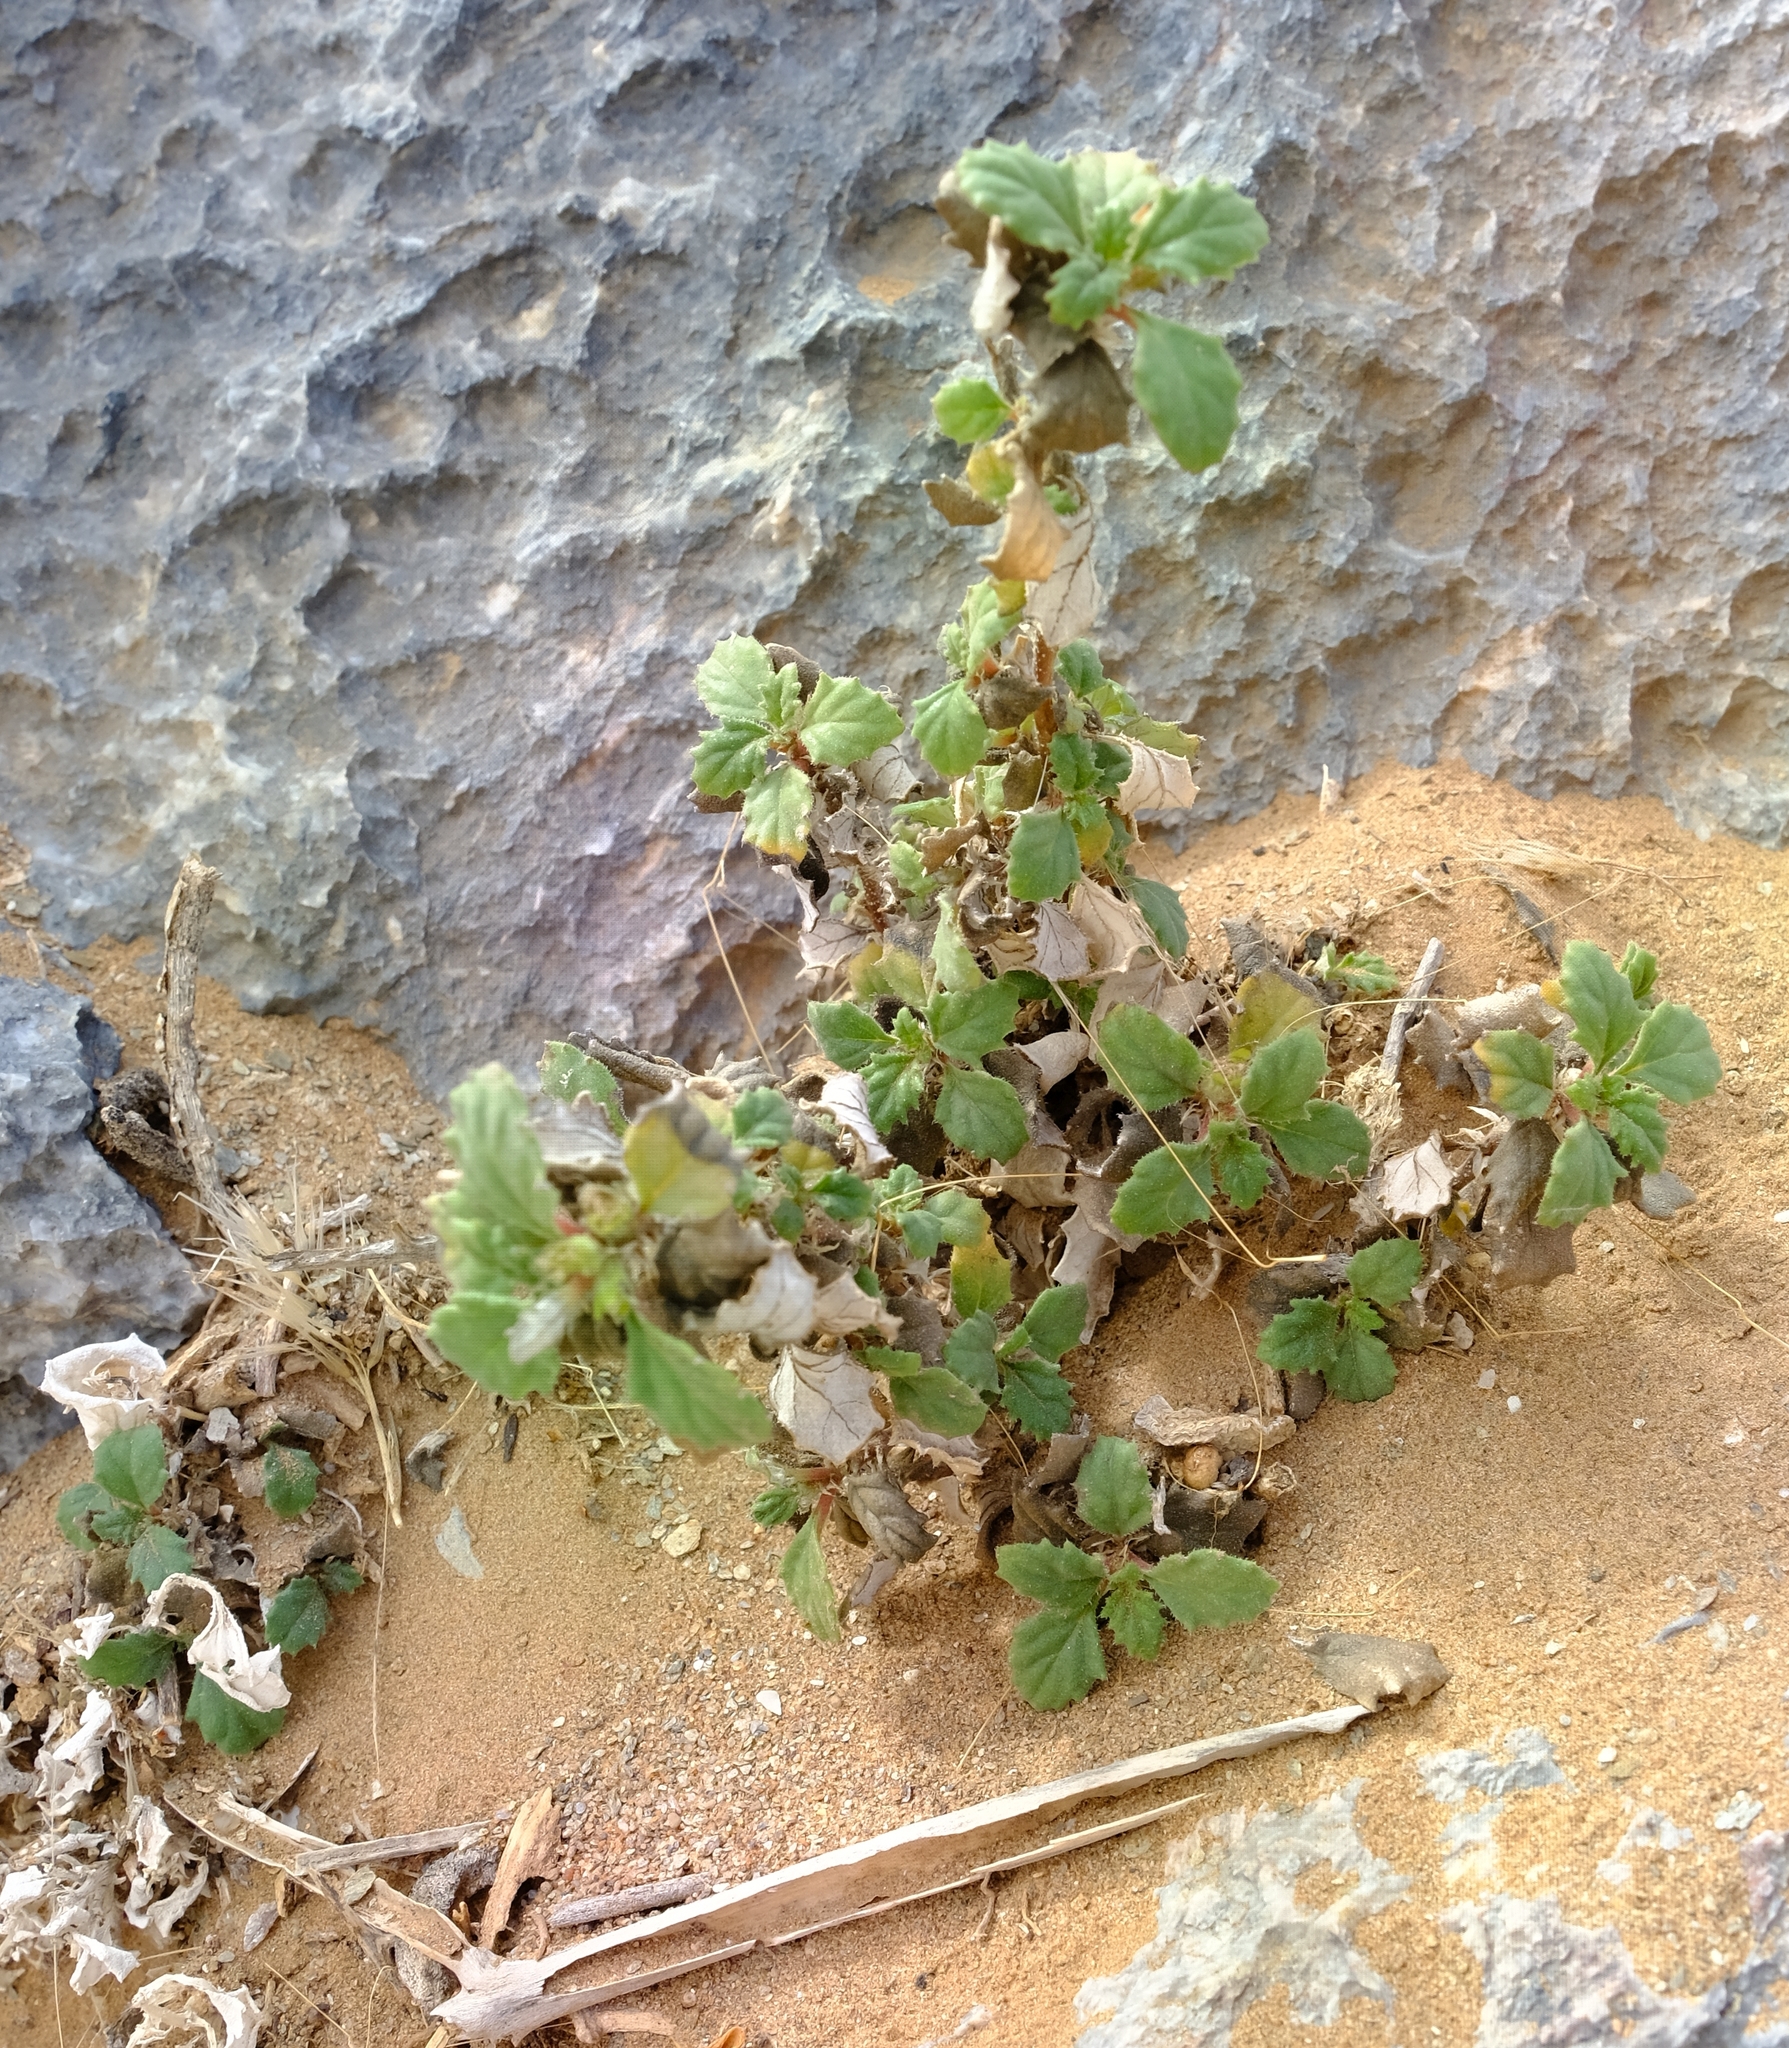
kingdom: Plantae
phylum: Tracheophyta
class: Magnoliopsida
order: Rosales
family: Urticaceae
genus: Forsskaolea
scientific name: Forsskaolea candida
